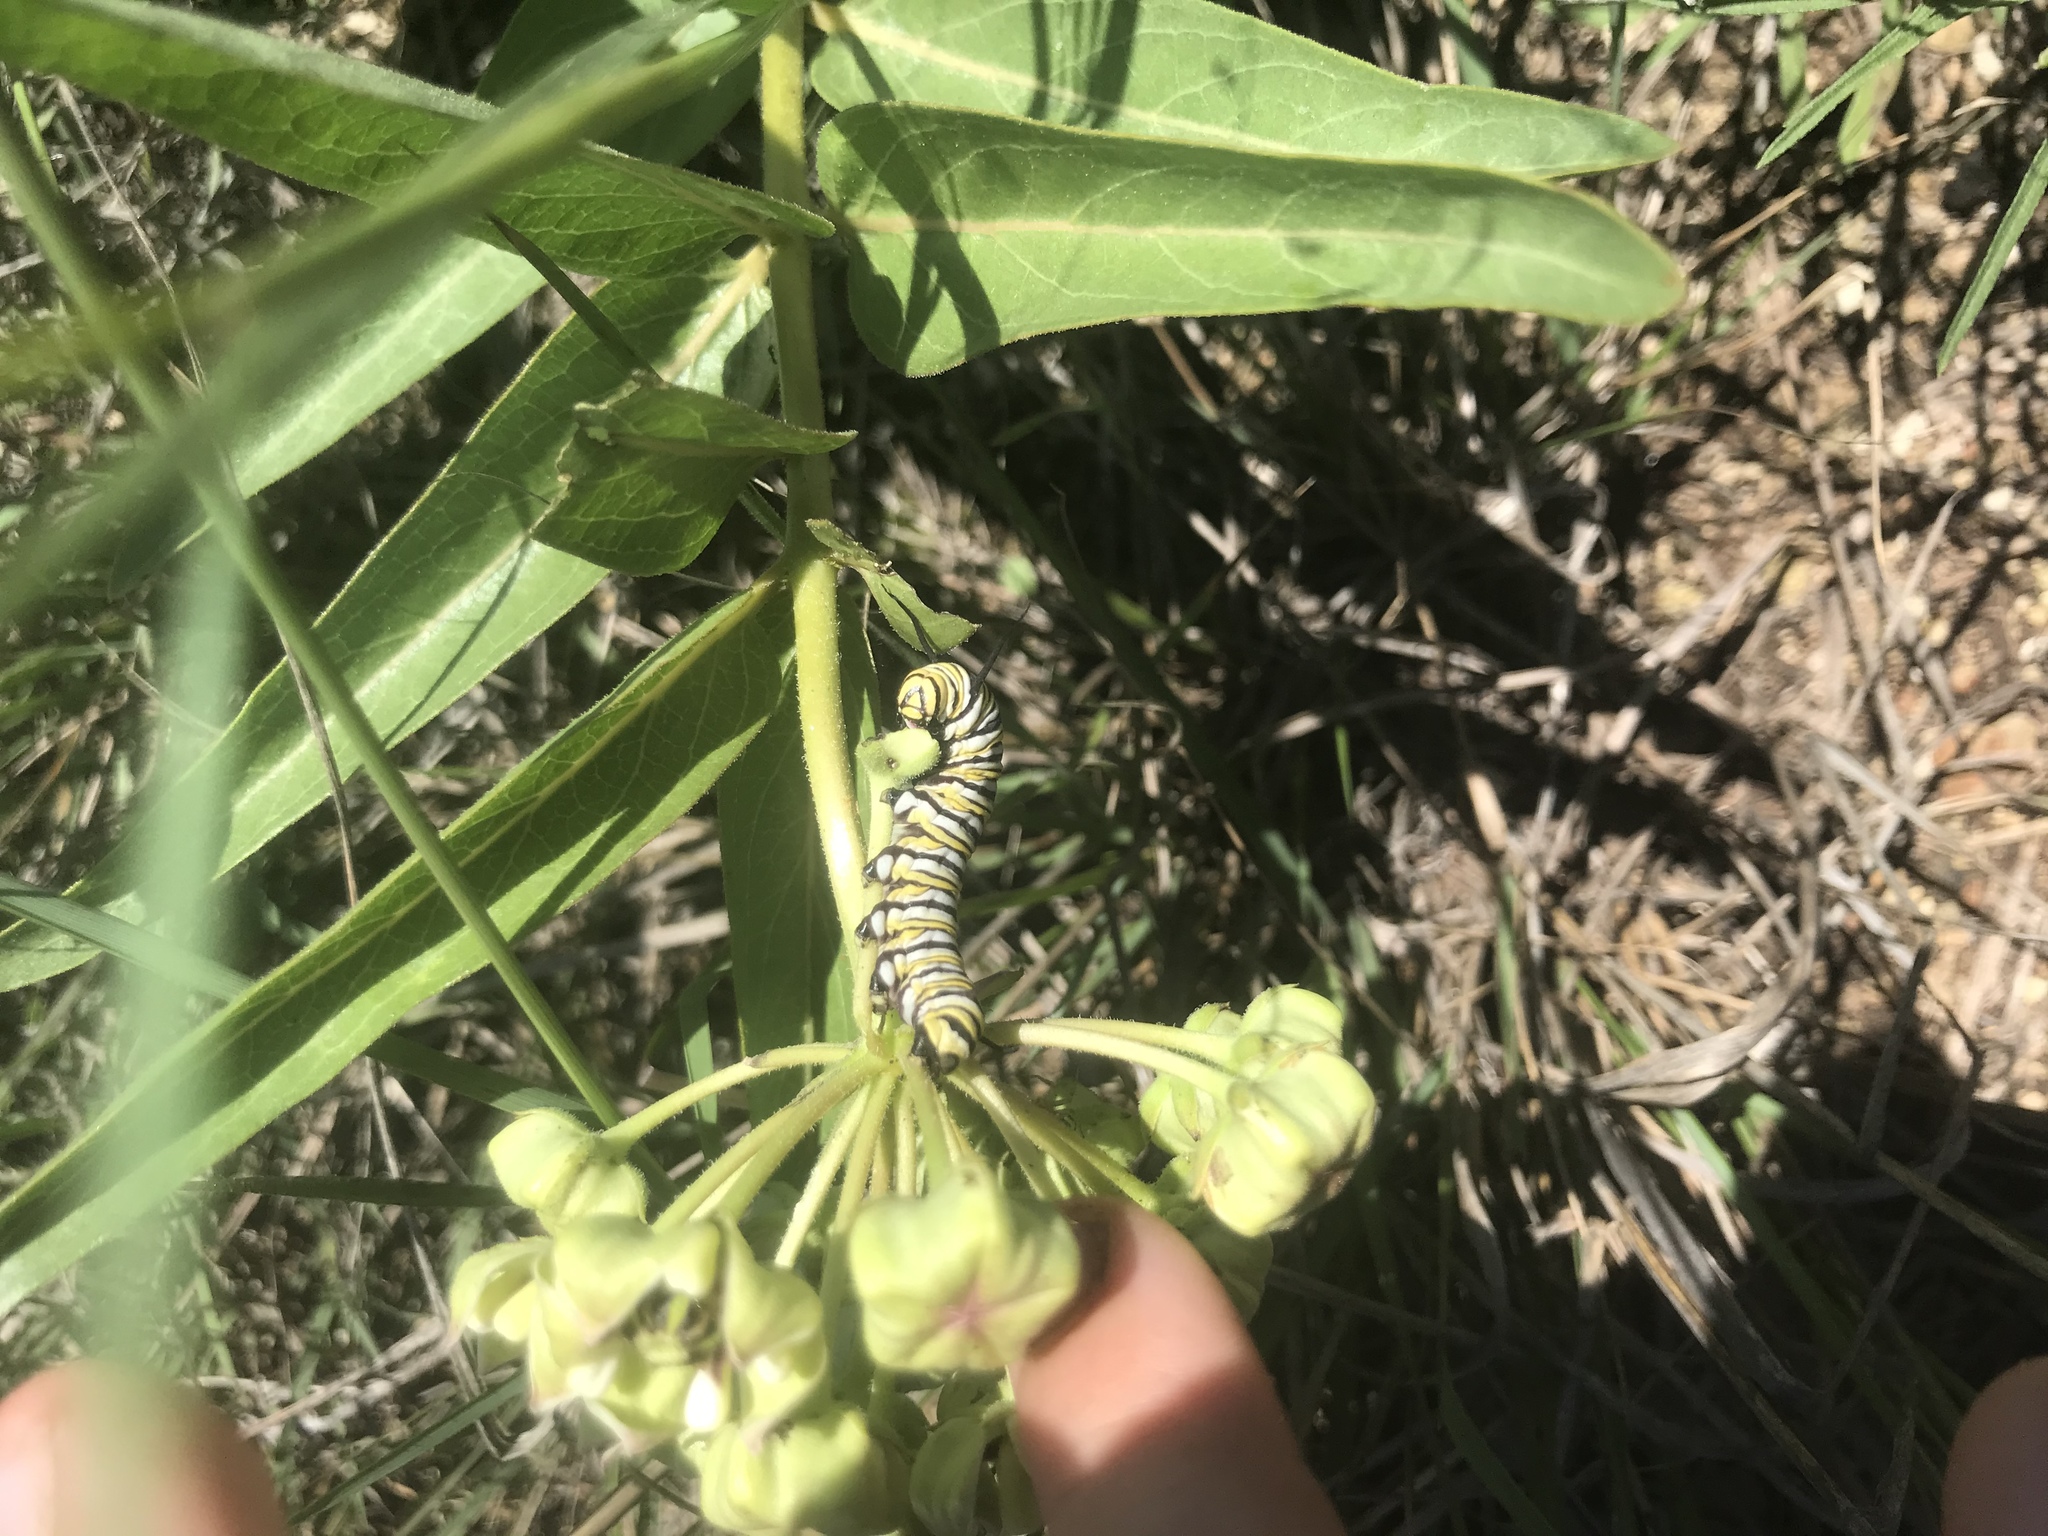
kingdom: Animalia
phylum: Arthropoda
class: Insecta
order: Lepidoptera
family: Nymphalidae
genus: Danaus
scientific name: Danaus plexippus
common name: Monarch
